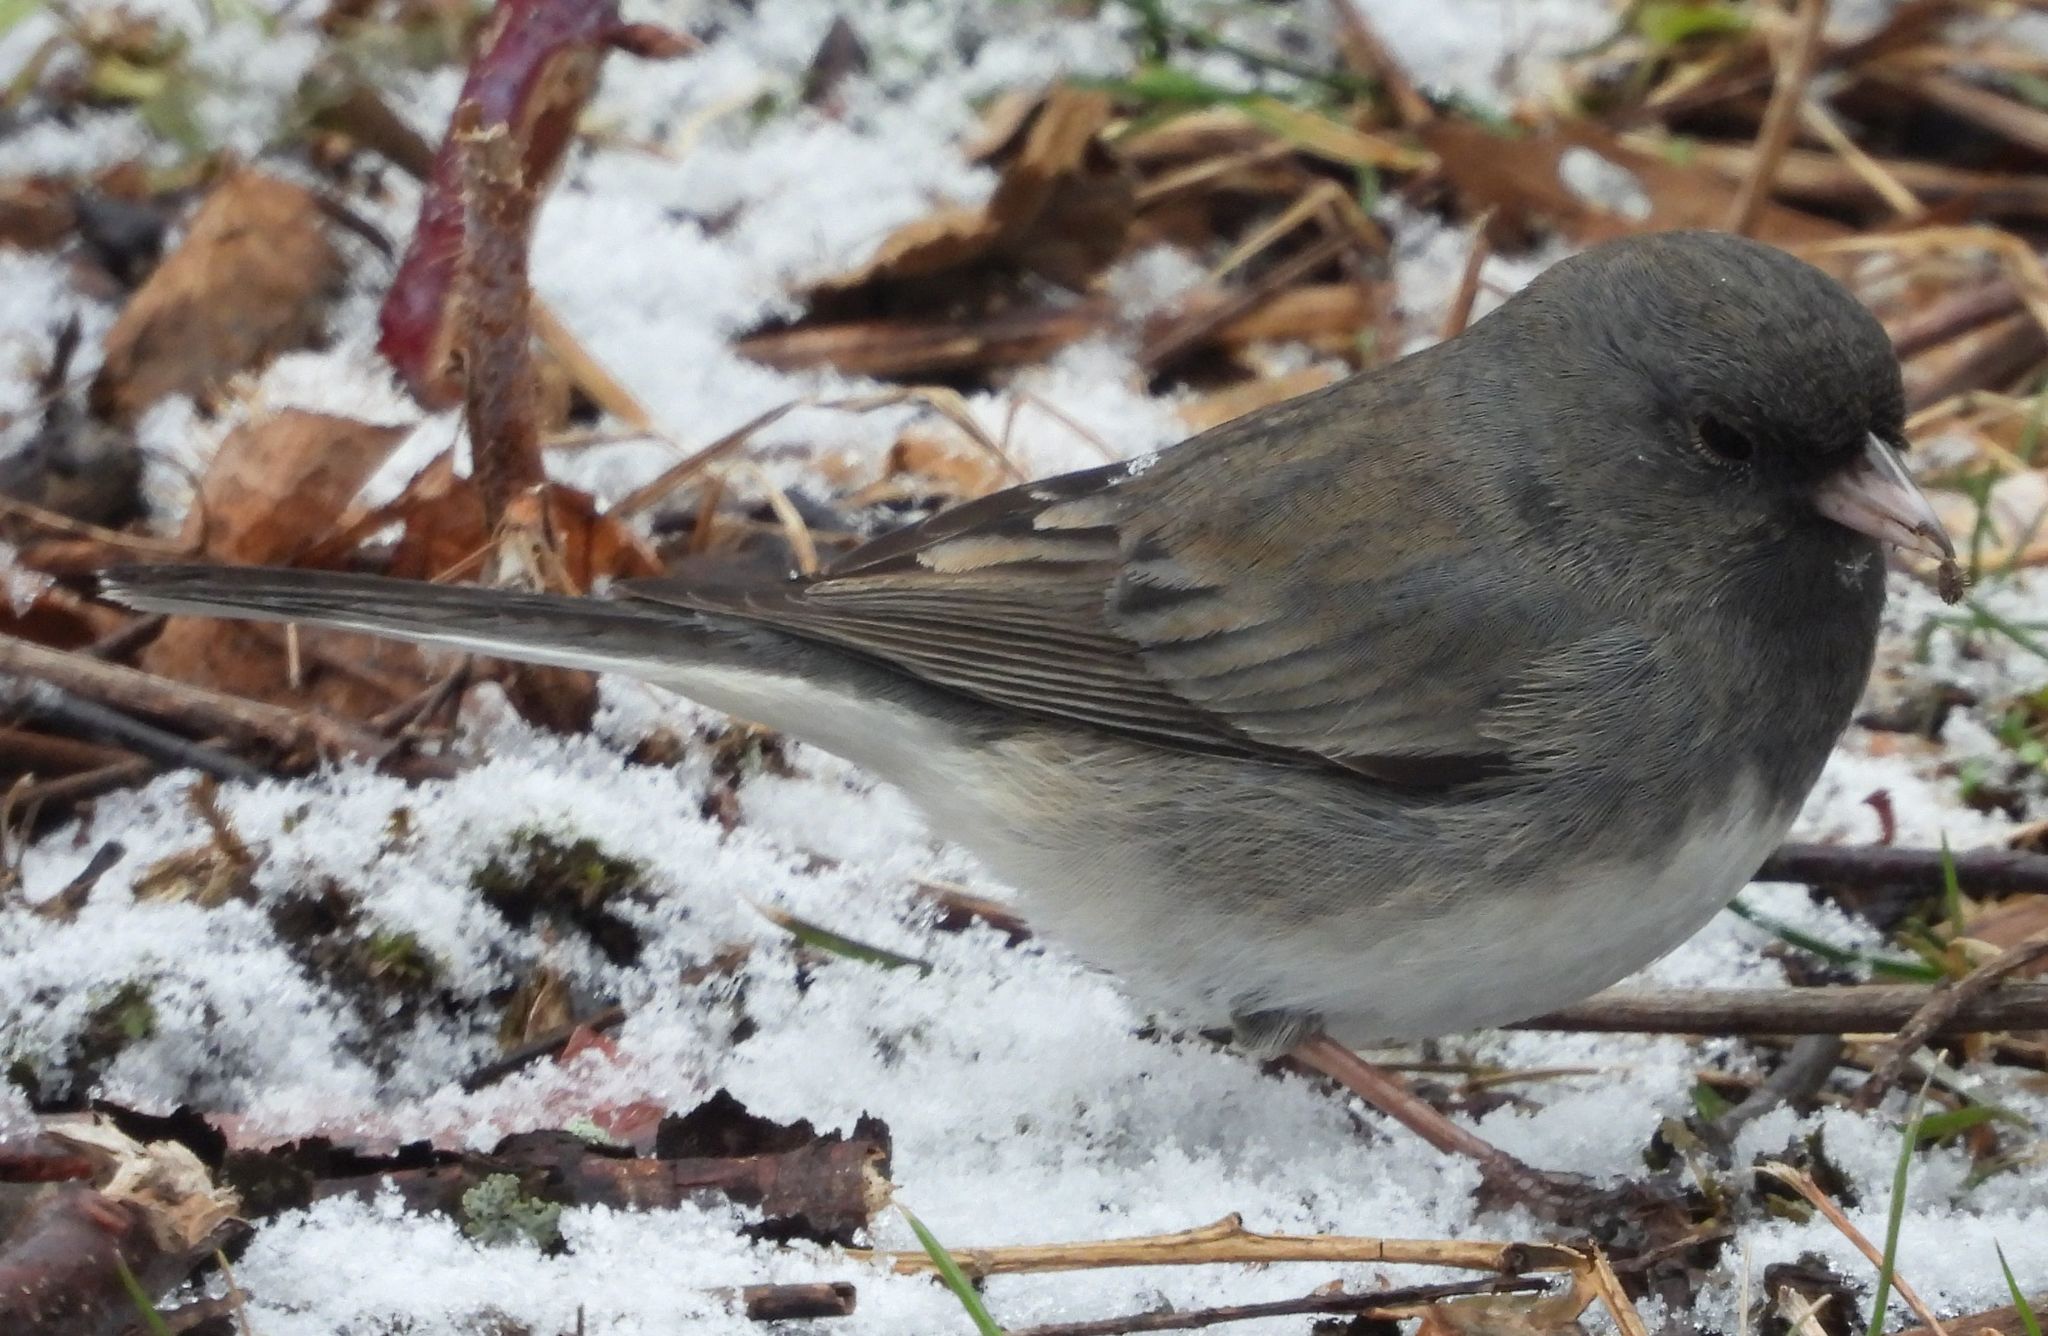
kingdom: Animalia
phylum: Chordata
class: Aves
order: Passeriformes
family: Passerellidae
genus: Junco
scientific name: Junco hyemalis
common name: Dark-eyed junco
